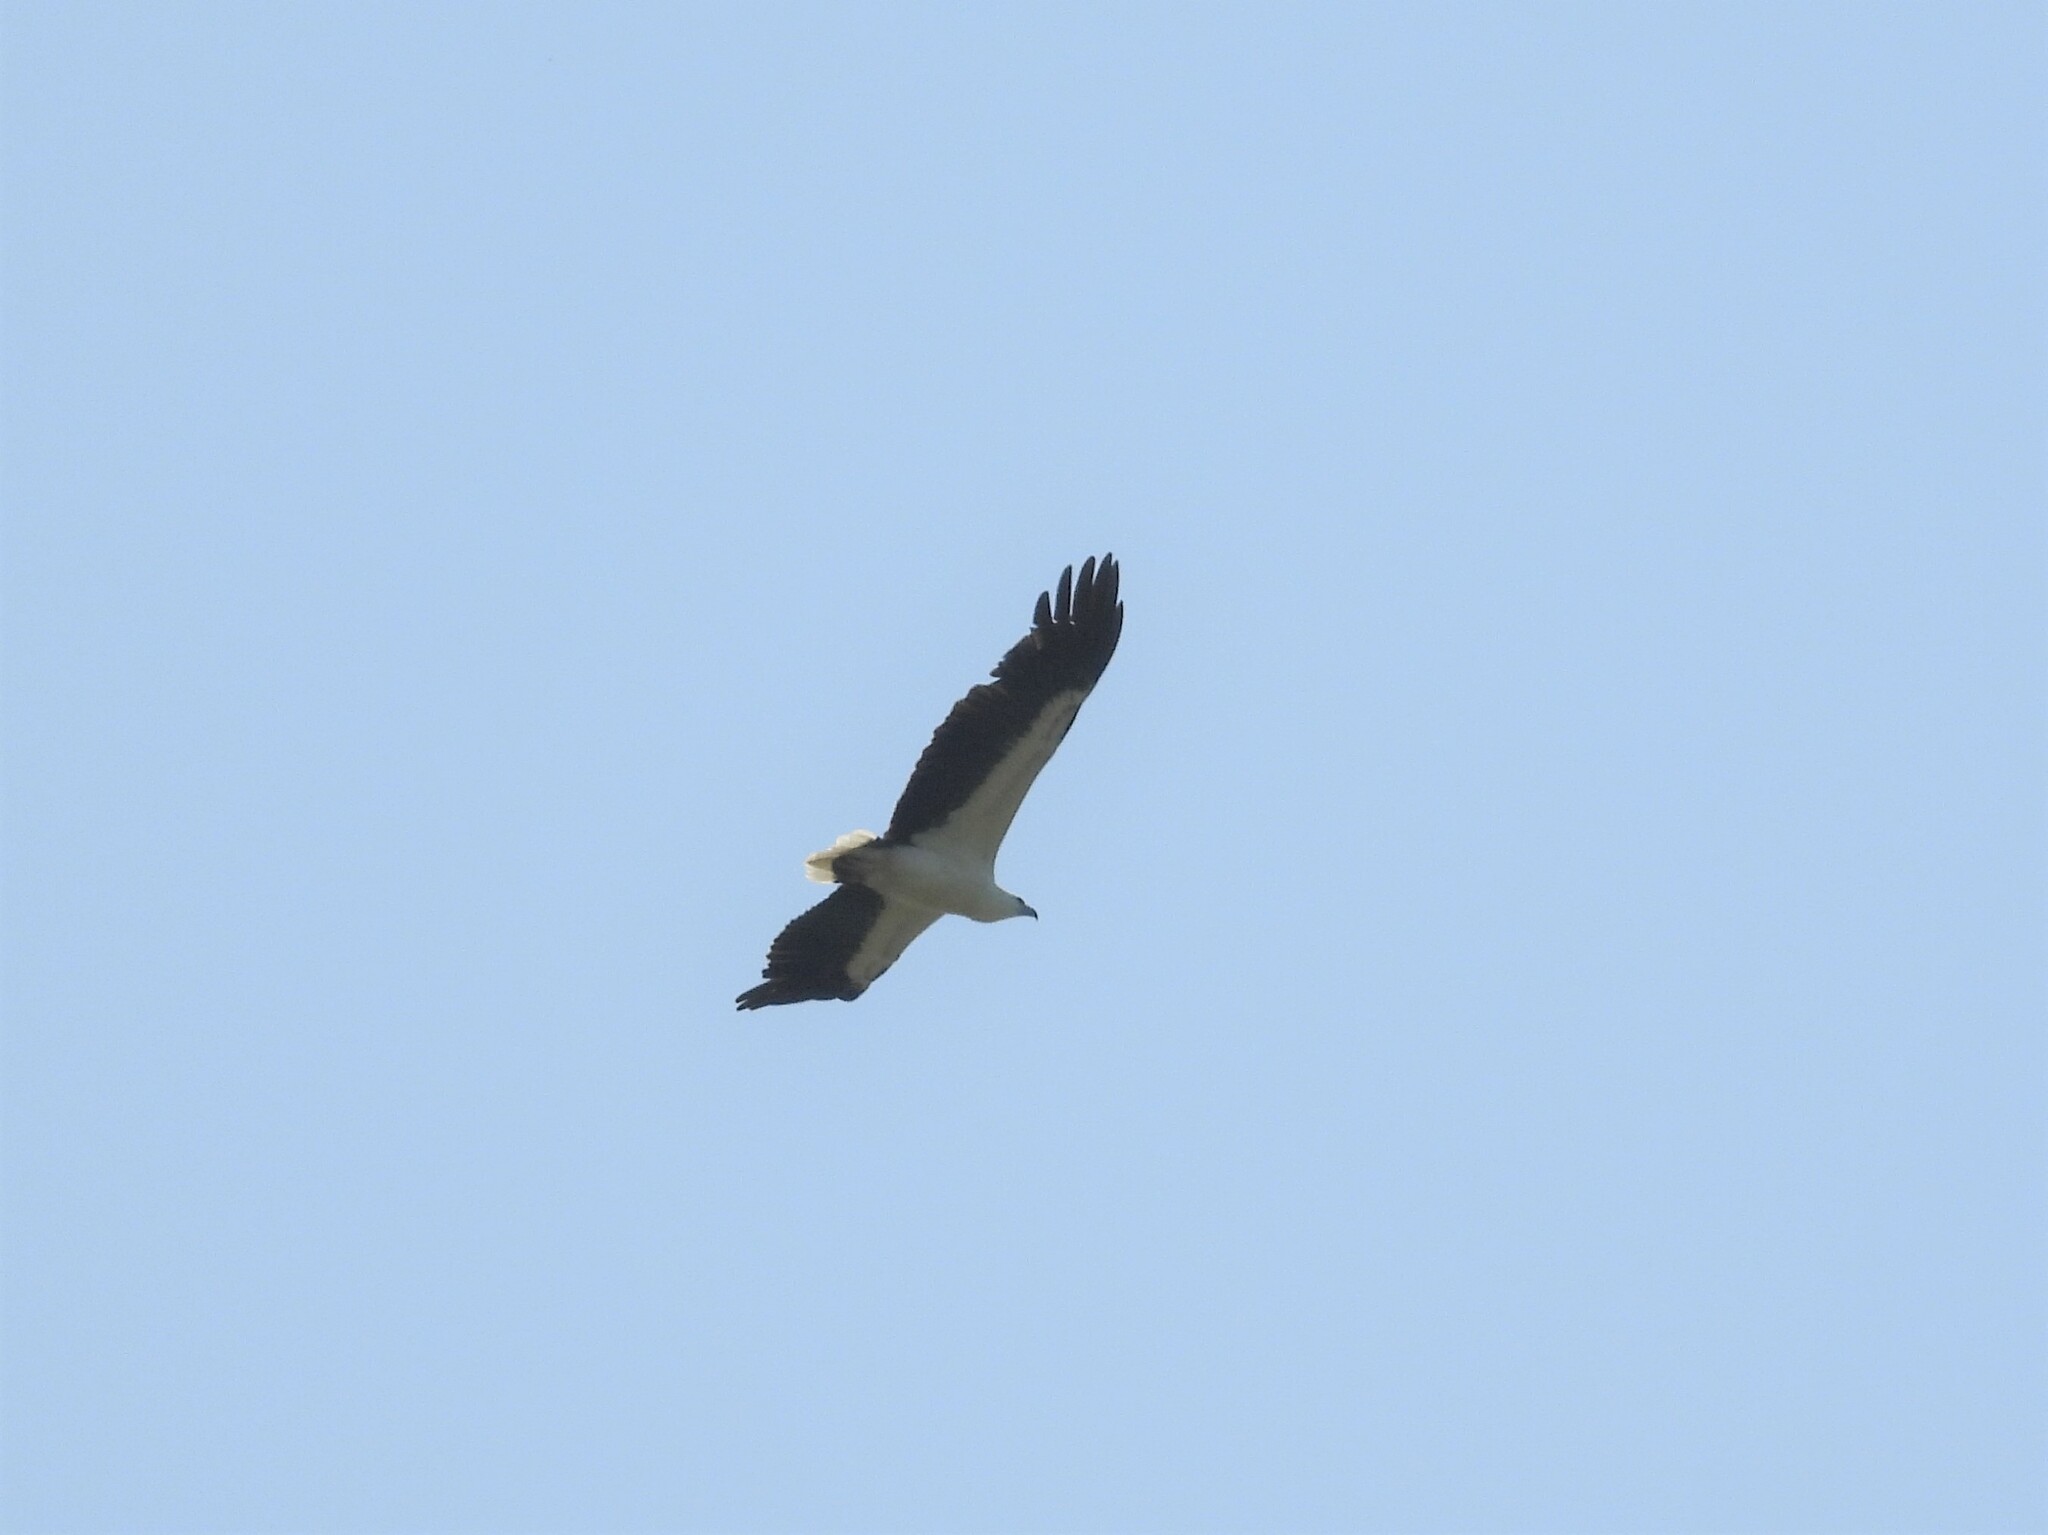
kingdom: Animalia
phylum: Chordata
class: Aves
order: Accipitriformes
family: Accipitridae
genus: Haliaeetus
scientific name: Haliaeetus leucogaster
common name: White-bellied sea eagle
